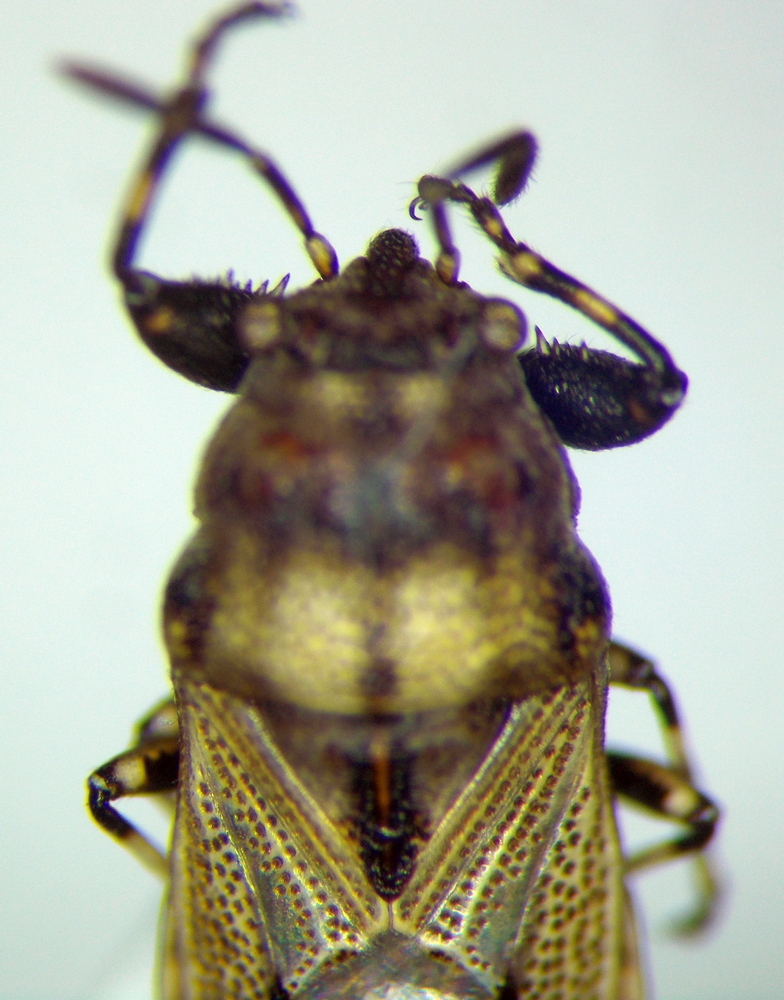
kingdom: Animalia
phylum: Arthropoda
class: Insecta
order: Hemiptera
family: Pachygronthidae
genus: Phlegyas
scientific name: Phlegyas annulicrus
